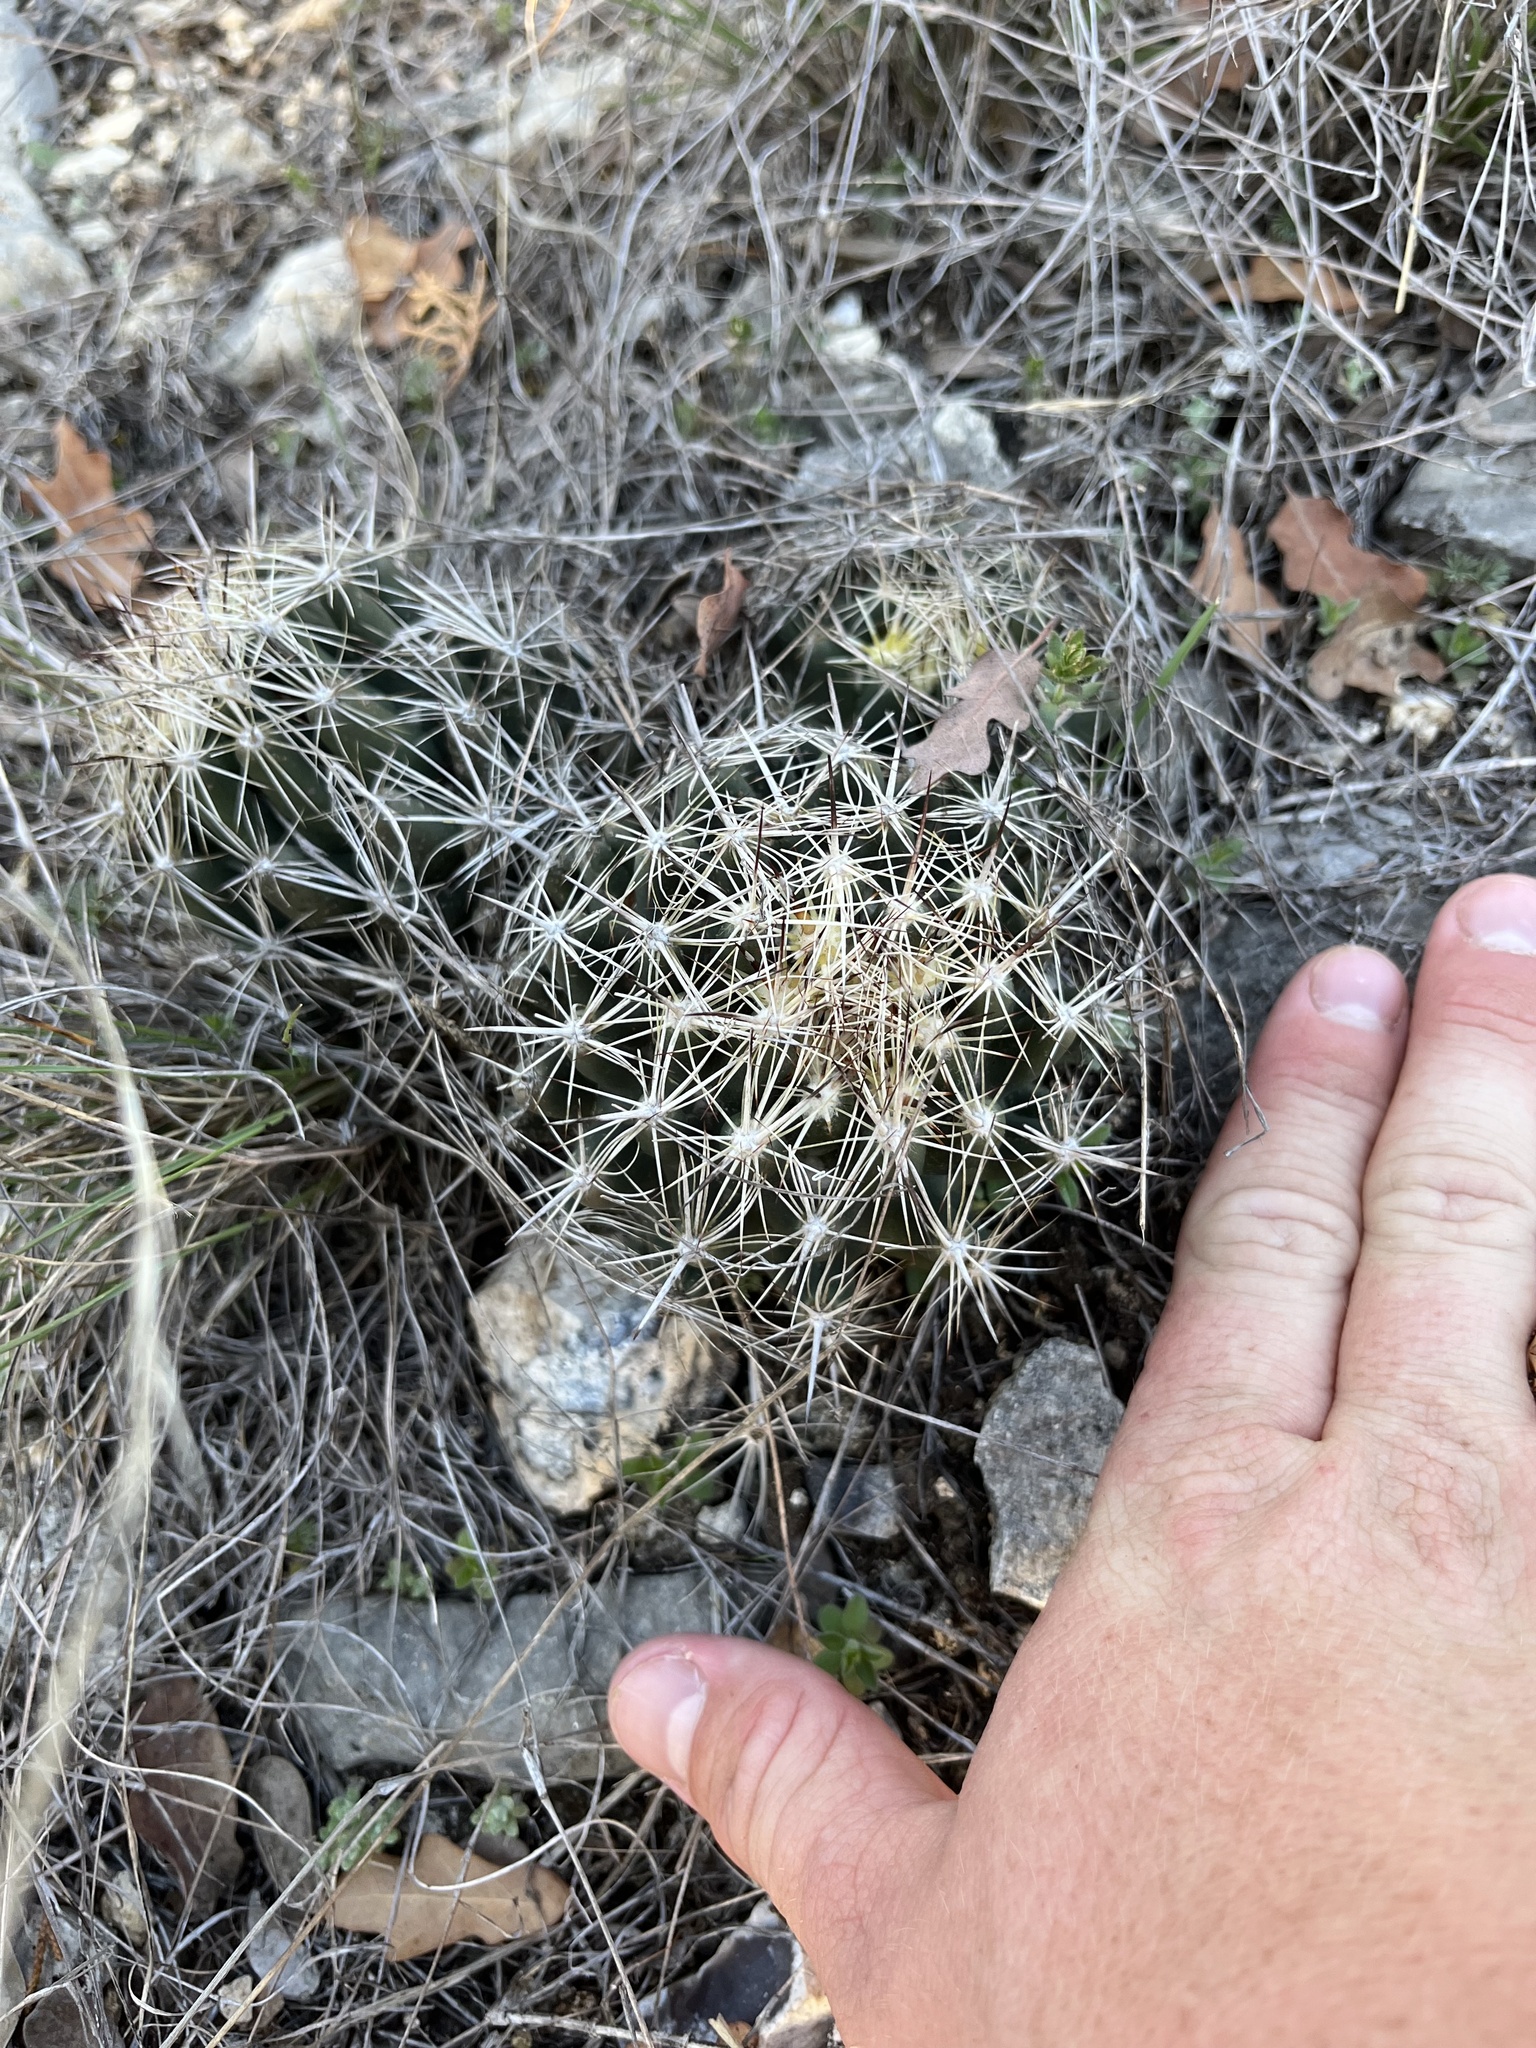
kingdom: Plantae
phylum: Tracheophyta
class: Magnoliopsida
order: Caryophyllales
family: Cactaceae
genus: Coryphantha
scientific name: Coryphantha sulcata
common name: Finger cactus
